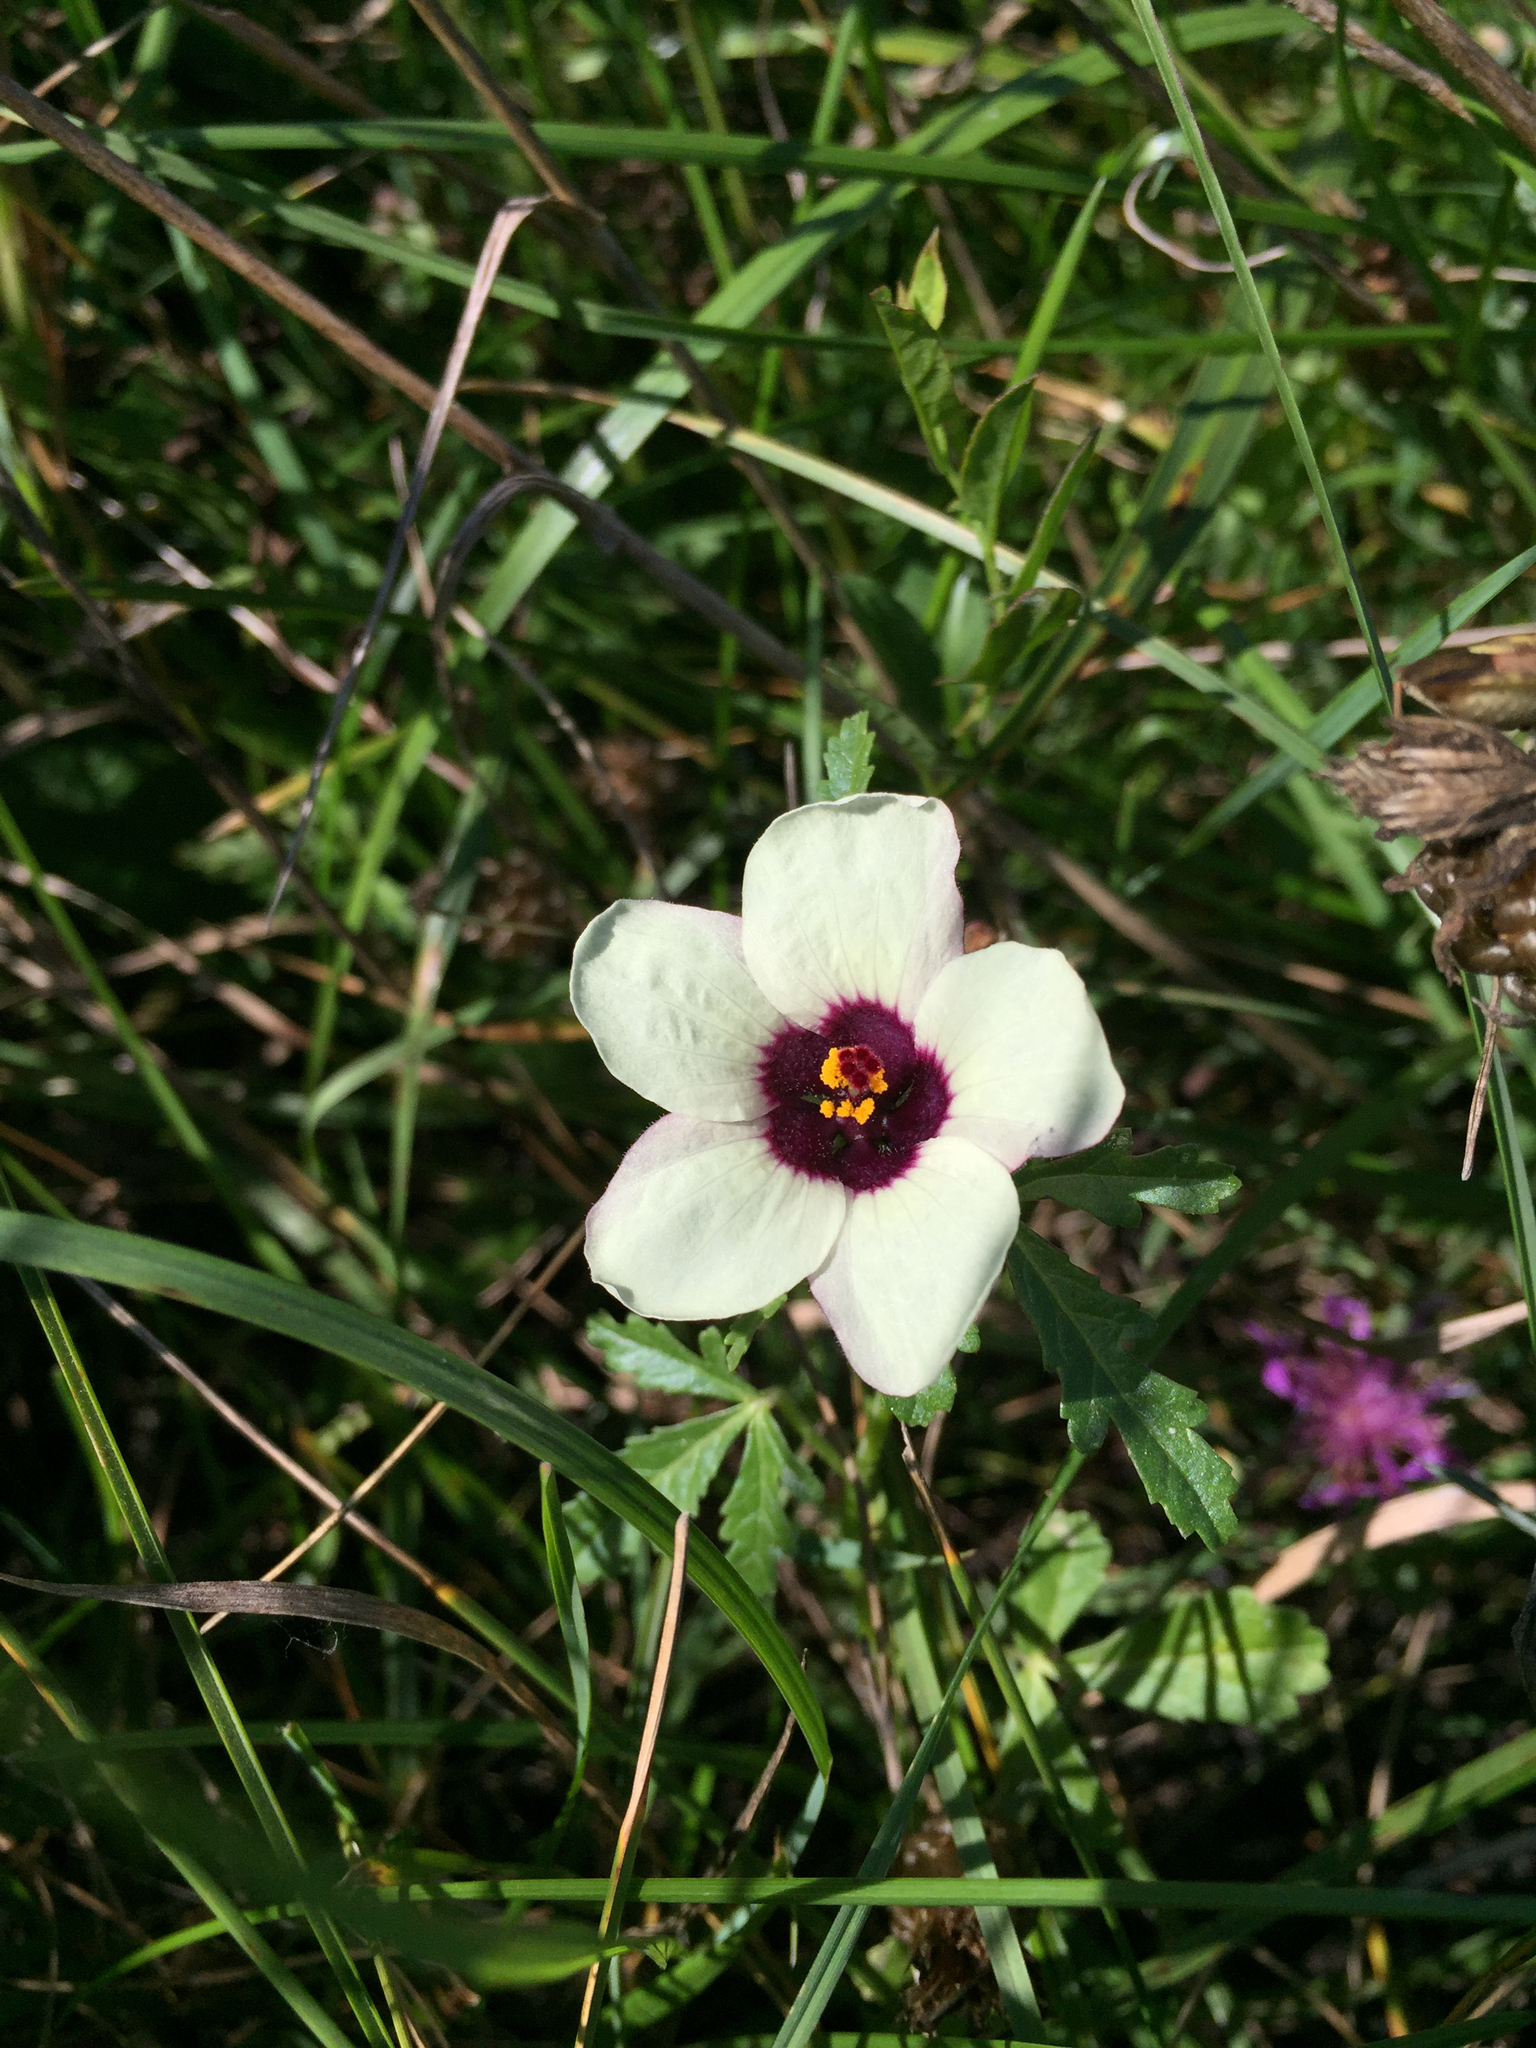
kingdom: Plantae
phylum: Tracheophyta
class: Magnoliopsida
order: Malvales
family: Malvaceae
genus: Hibiscus
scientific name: Hibiscus trionum
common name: Bladder ketmia
